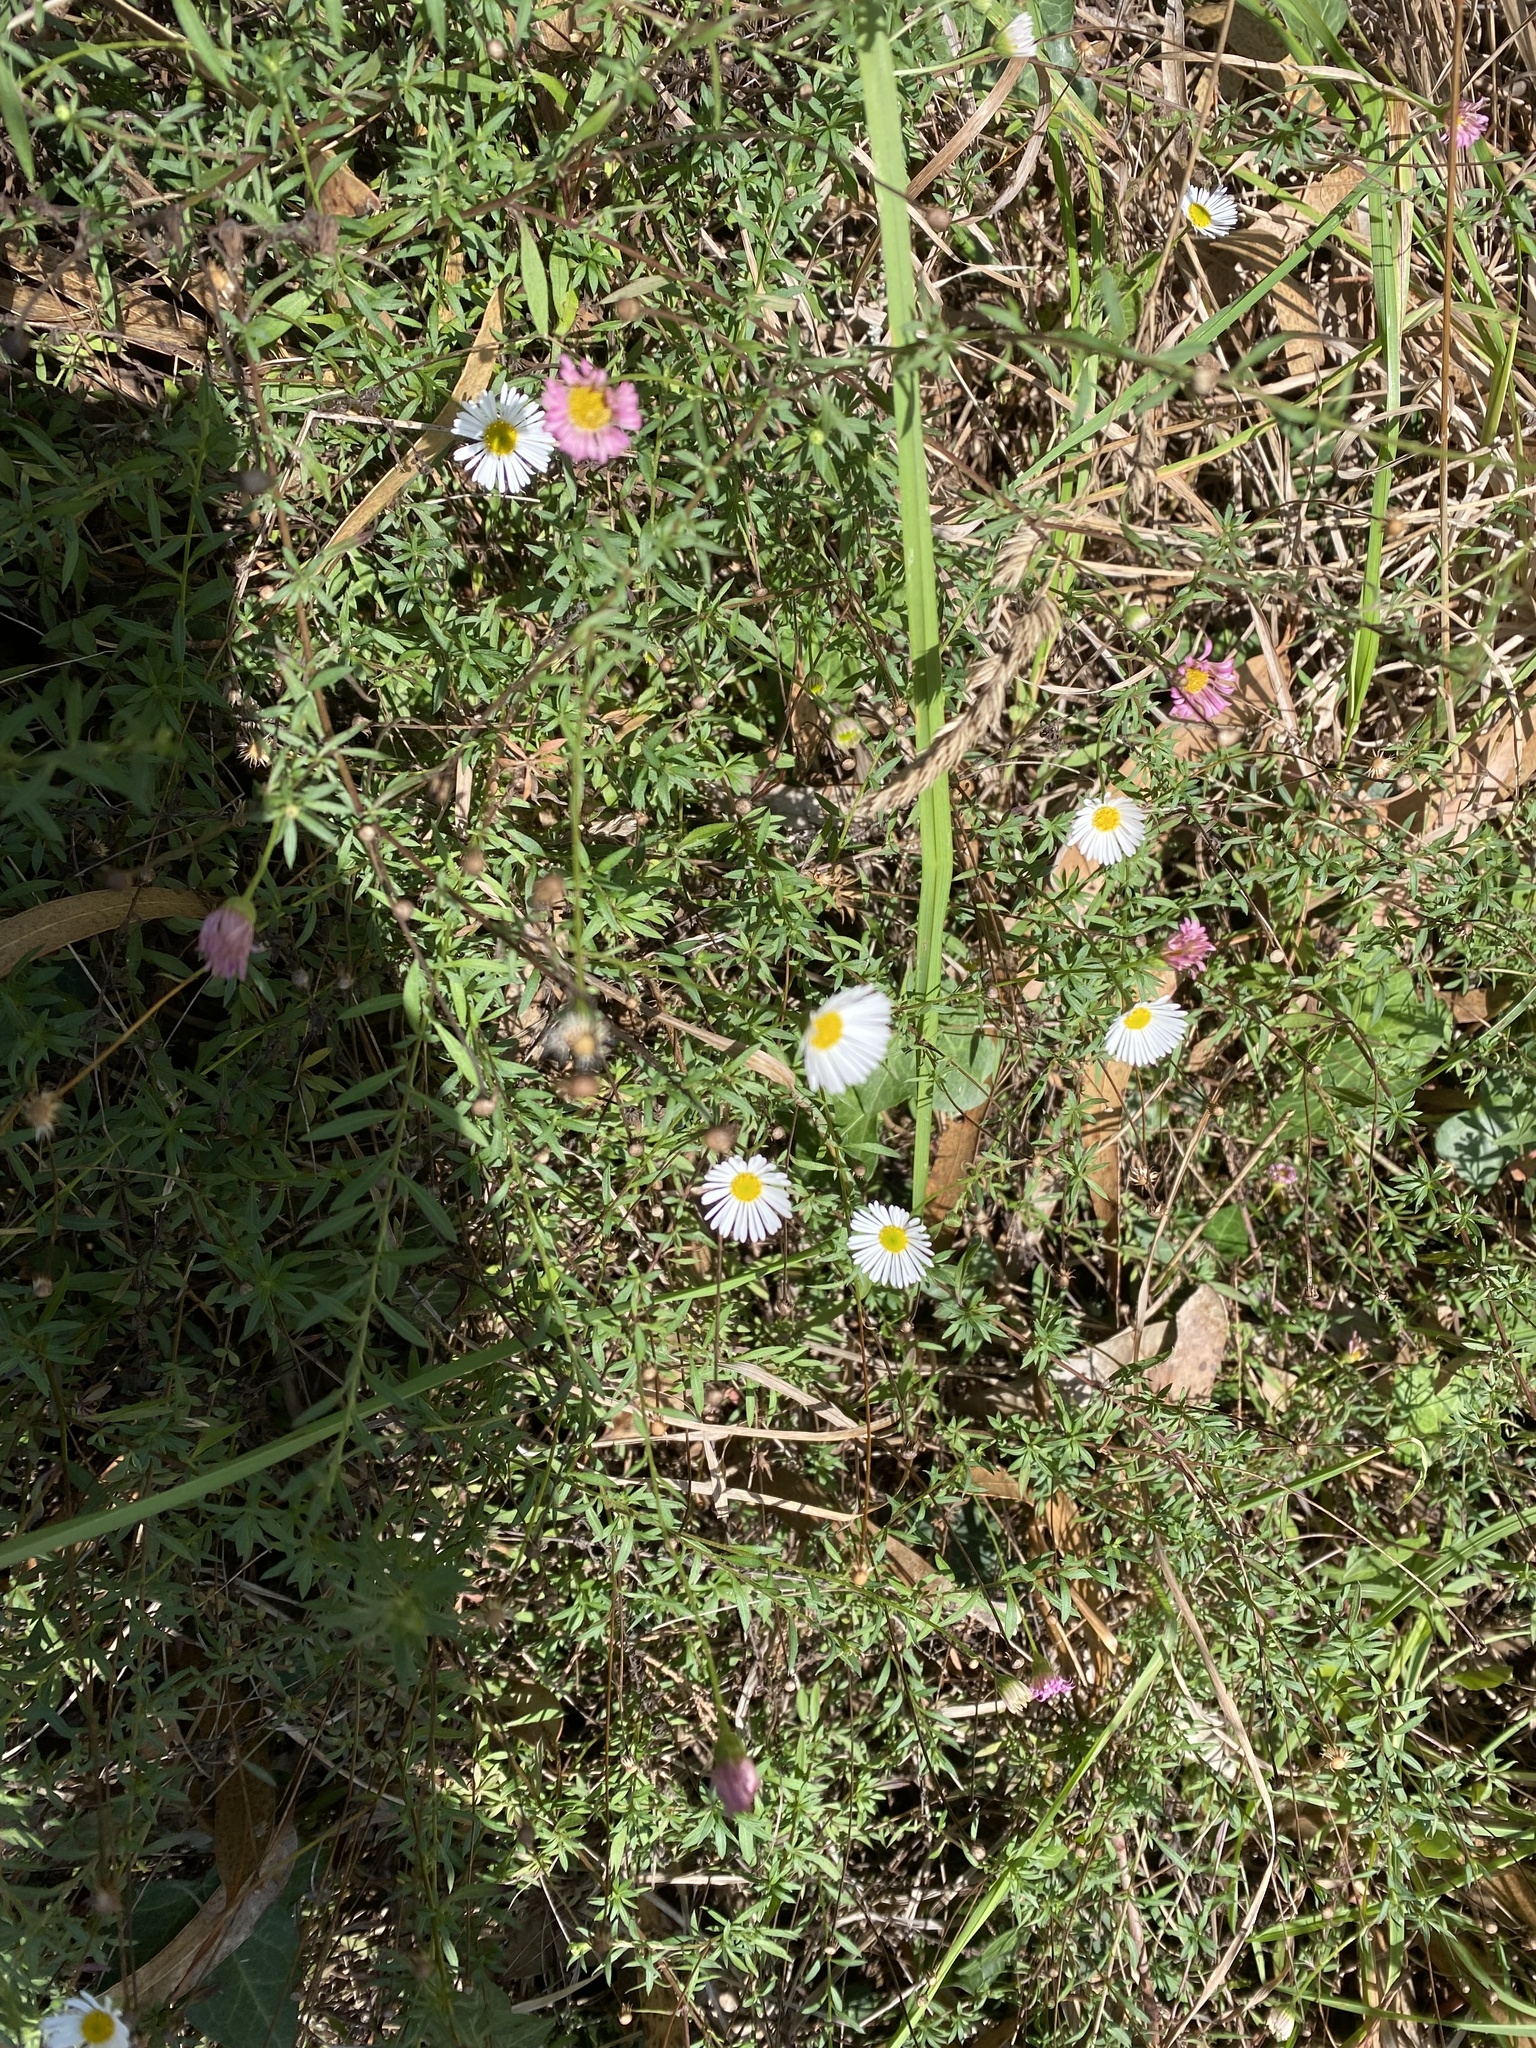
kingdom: Plantae
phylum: Tracheophyta
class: Magnoliopsida
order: Asterales
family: Asteraceae
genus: Erigeron
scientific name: Erigeron karvinskianus
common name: Mexican fleabane
